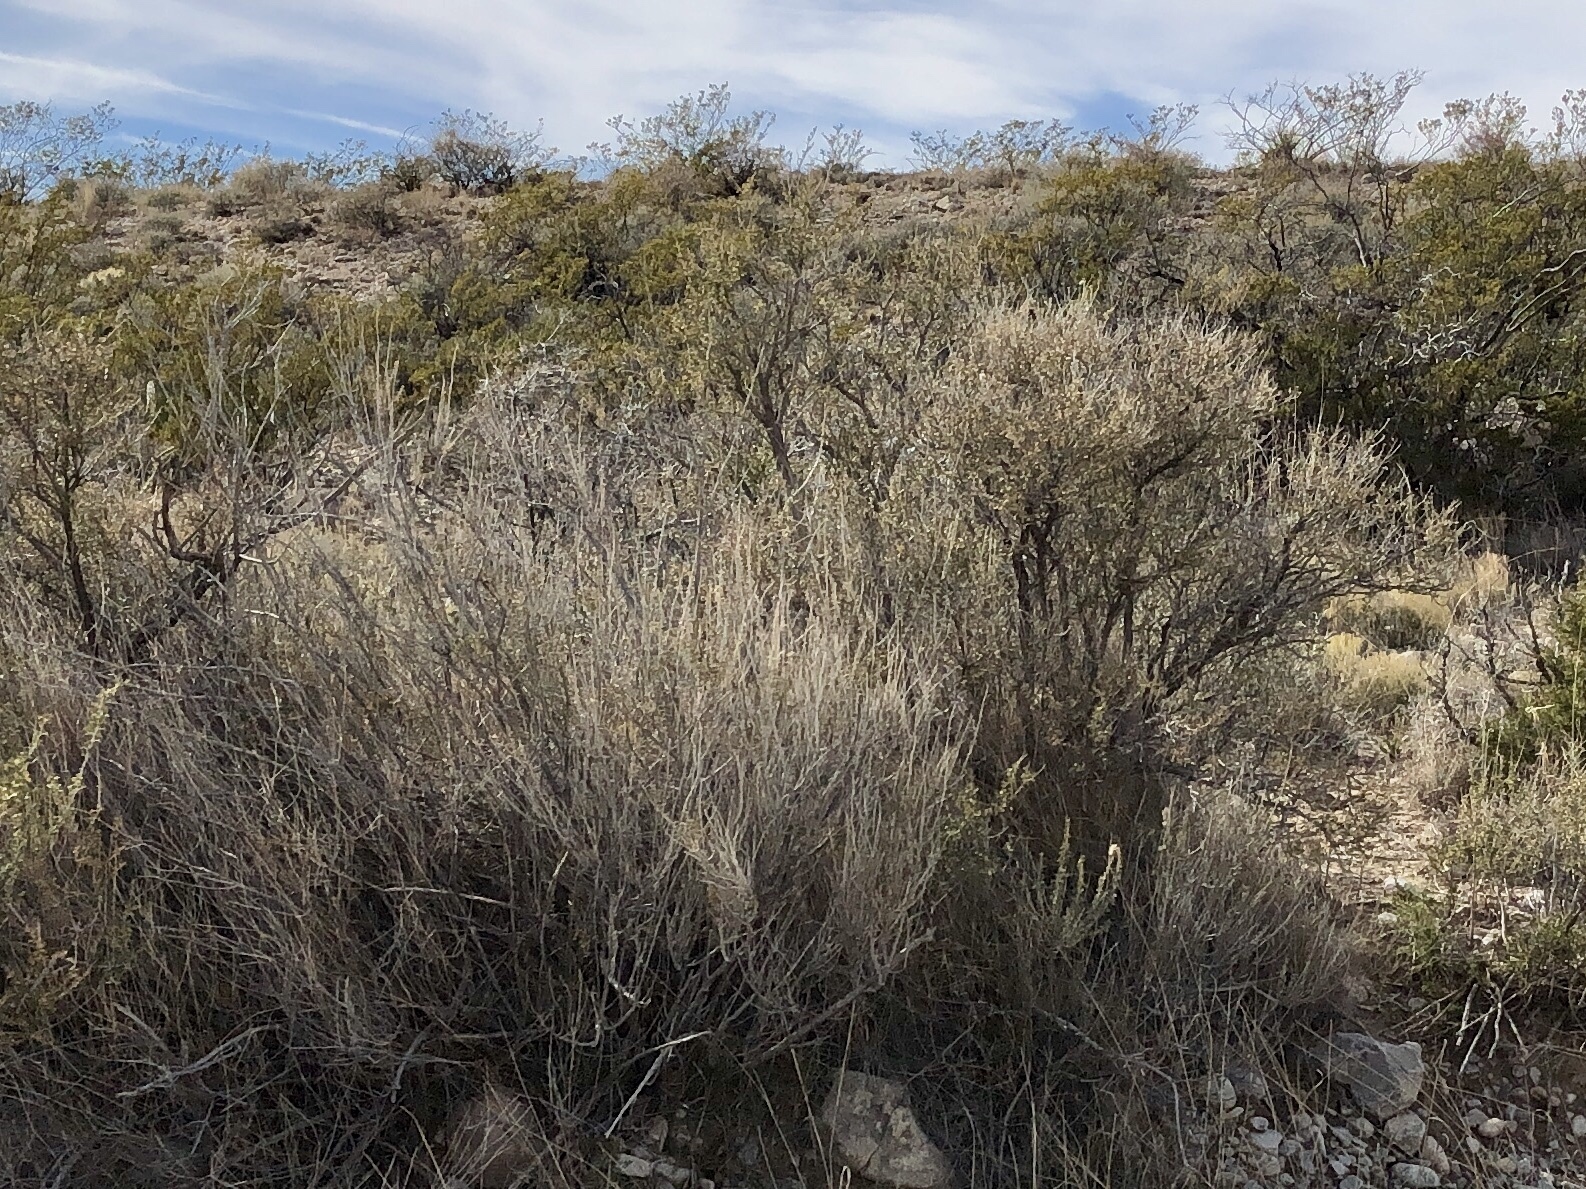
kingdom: Plantae
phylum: Tracheophyta
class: Magnoliopsida
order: Rosales
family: Rosaceae
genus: Fallugia
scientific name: Fallugia paradoxa
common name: Apache-plume
